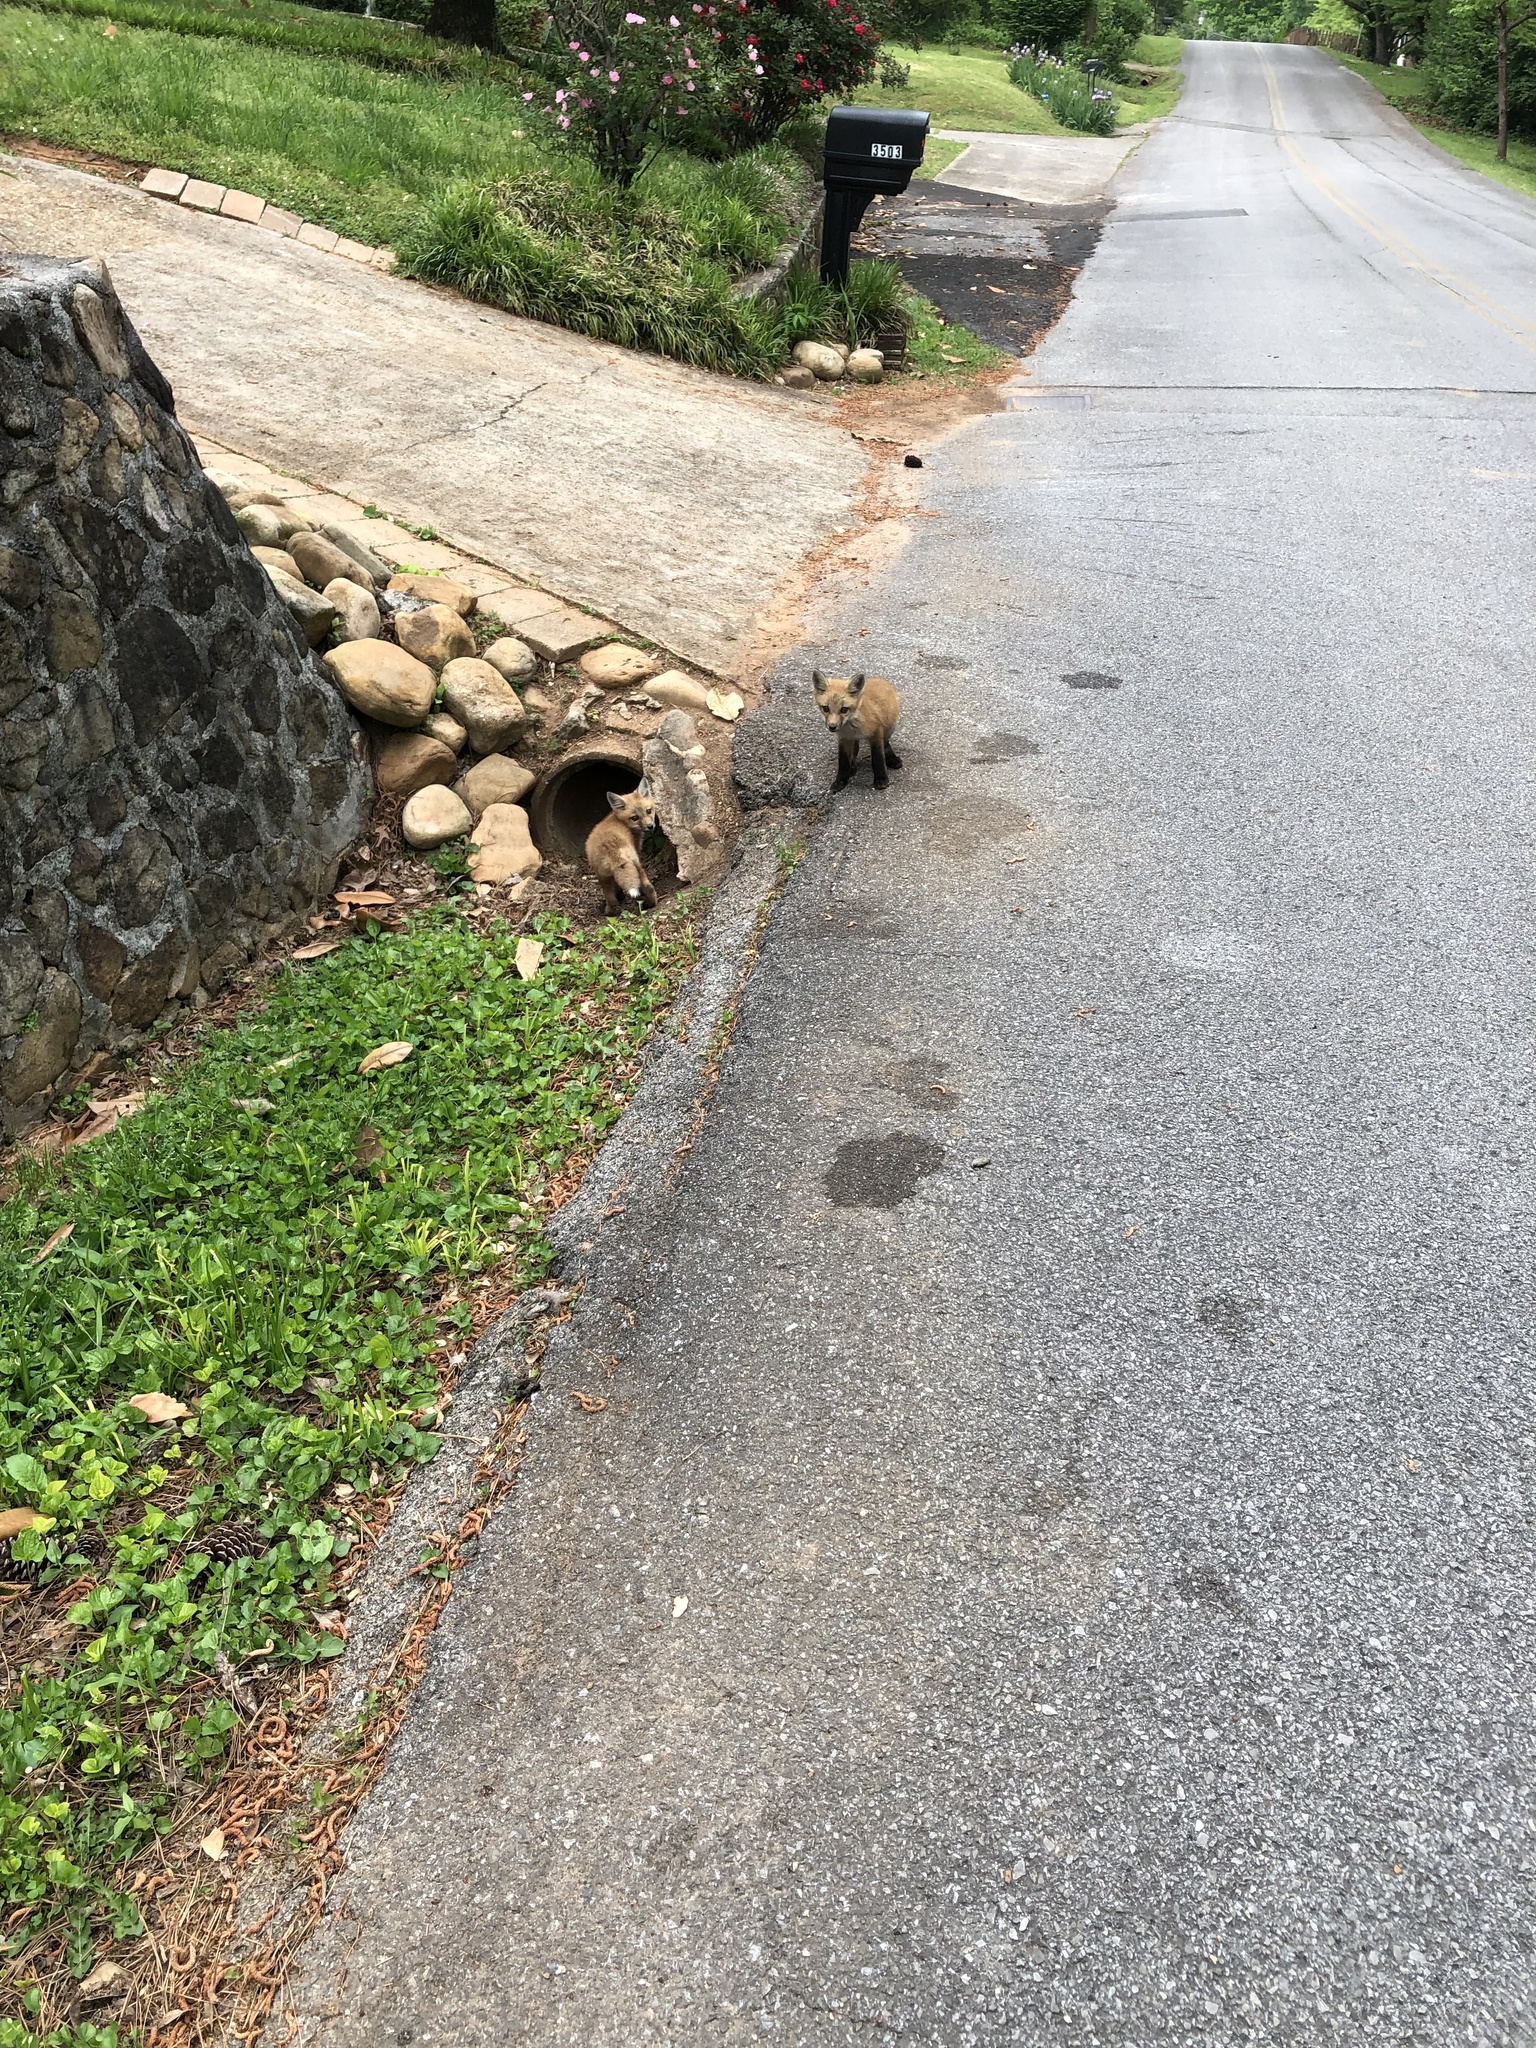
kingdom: Animalia
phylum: Chordata
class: Mammalia
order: Carnivora
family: Canidae
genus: Vulpes
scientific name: Vulpes vulpes
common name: Red fox
